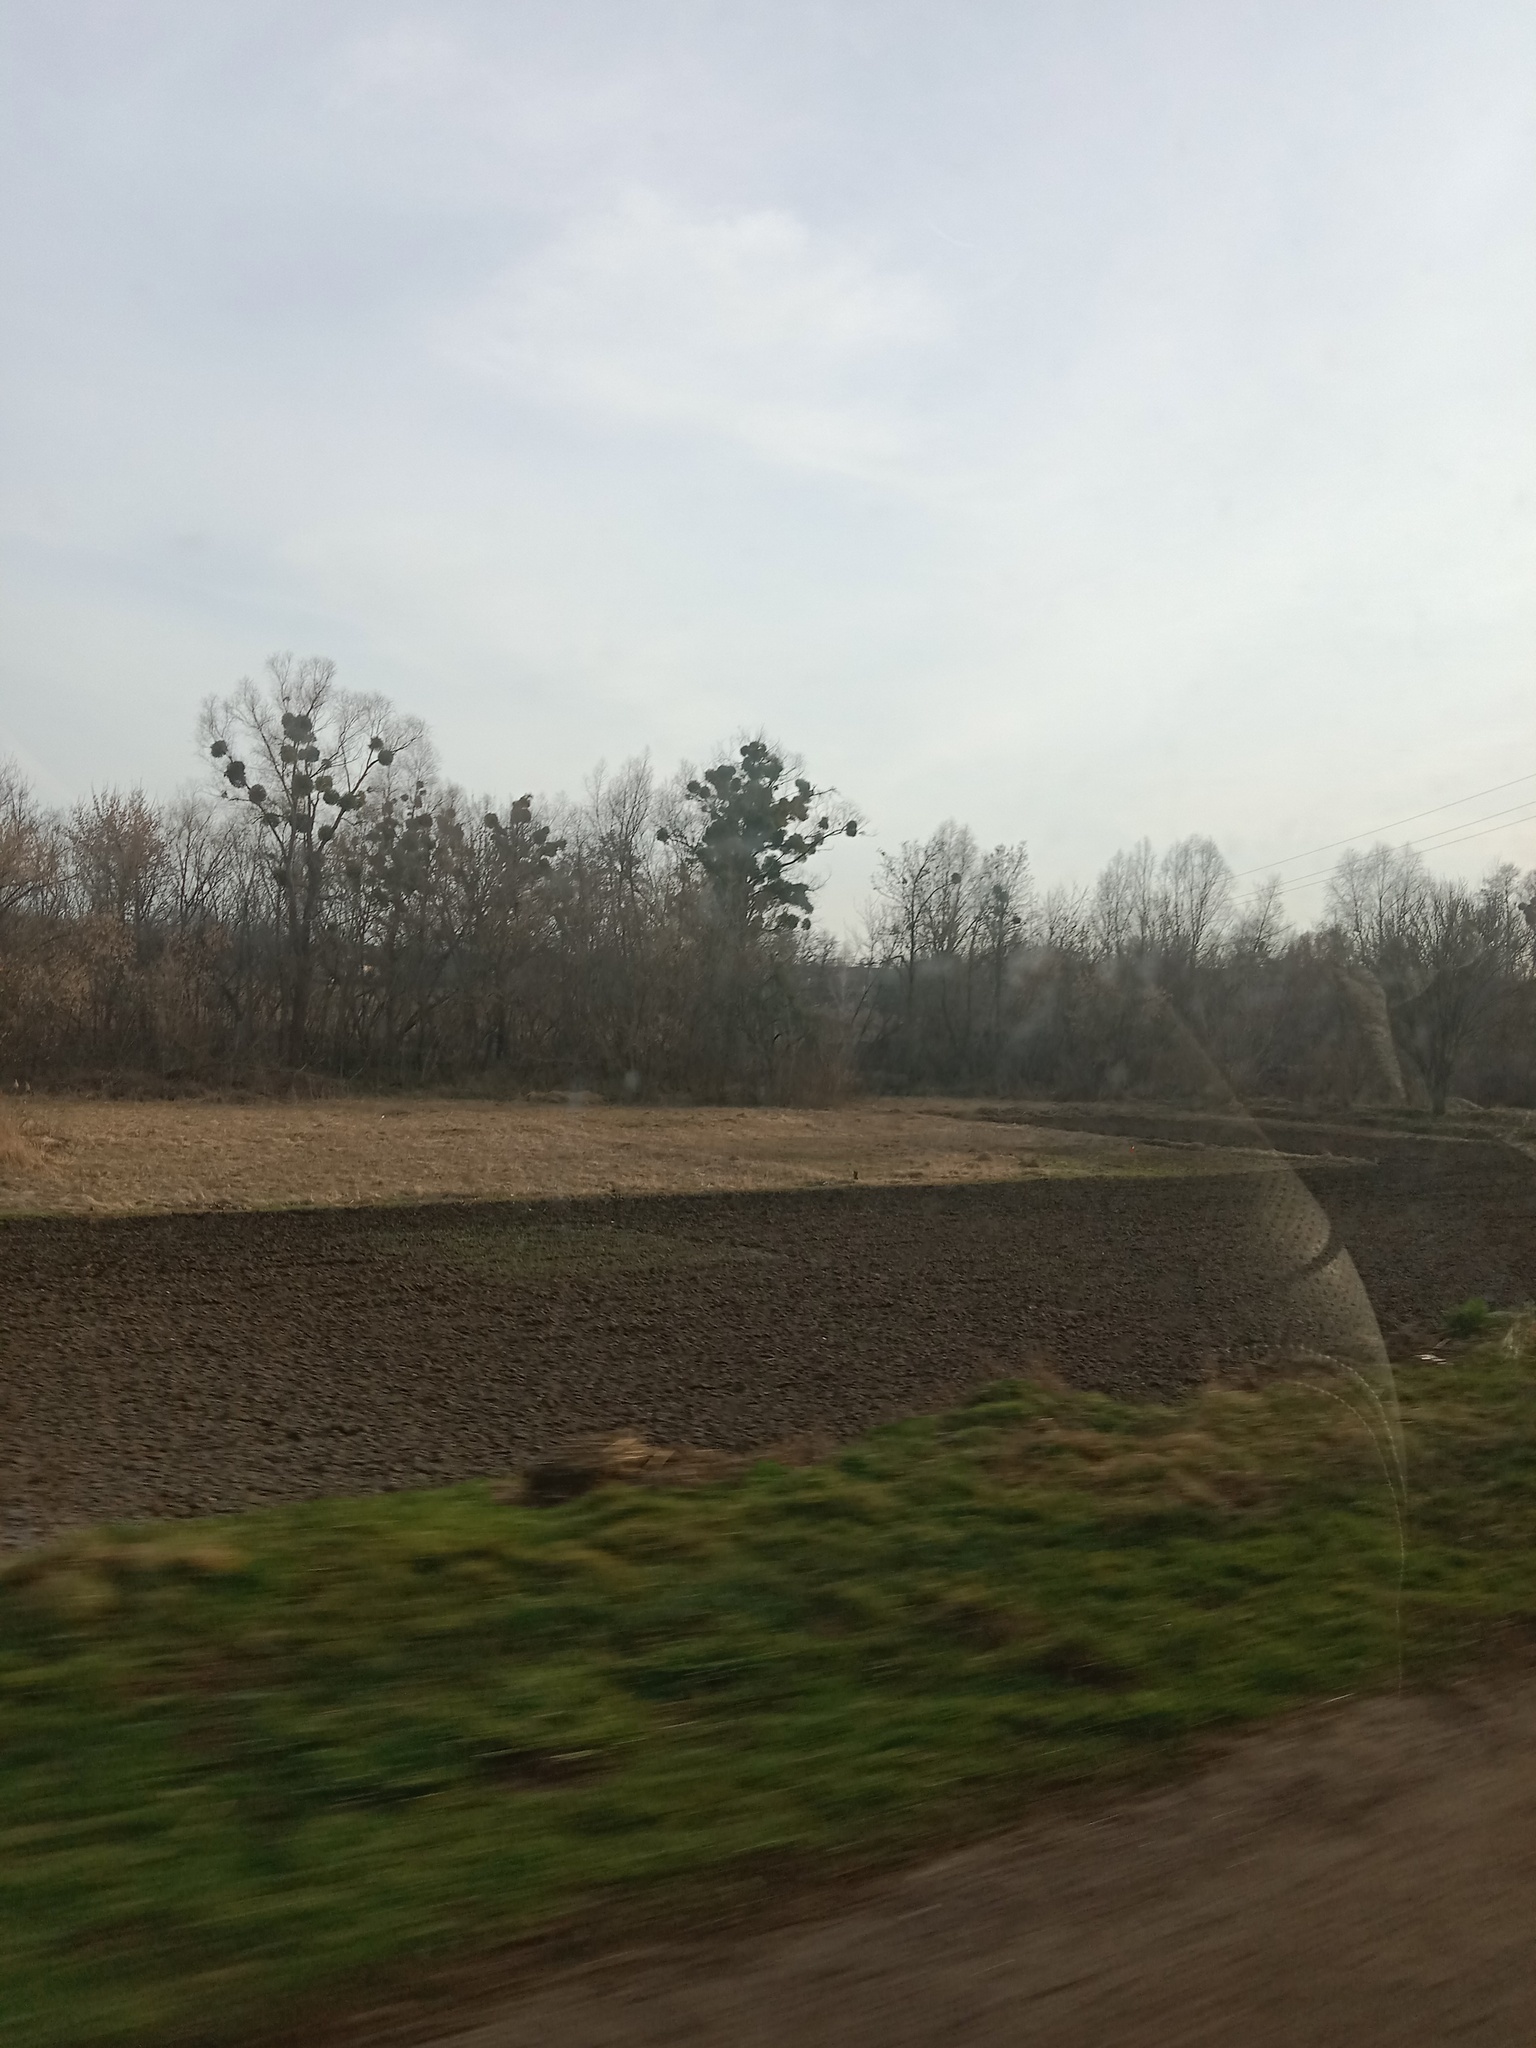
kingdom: Plantae
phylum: Tracheophyta
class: Magnoliopsida
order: Santalales
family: Viscaceae
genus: Viscum
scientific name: Viscum album
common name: Mistletoe
